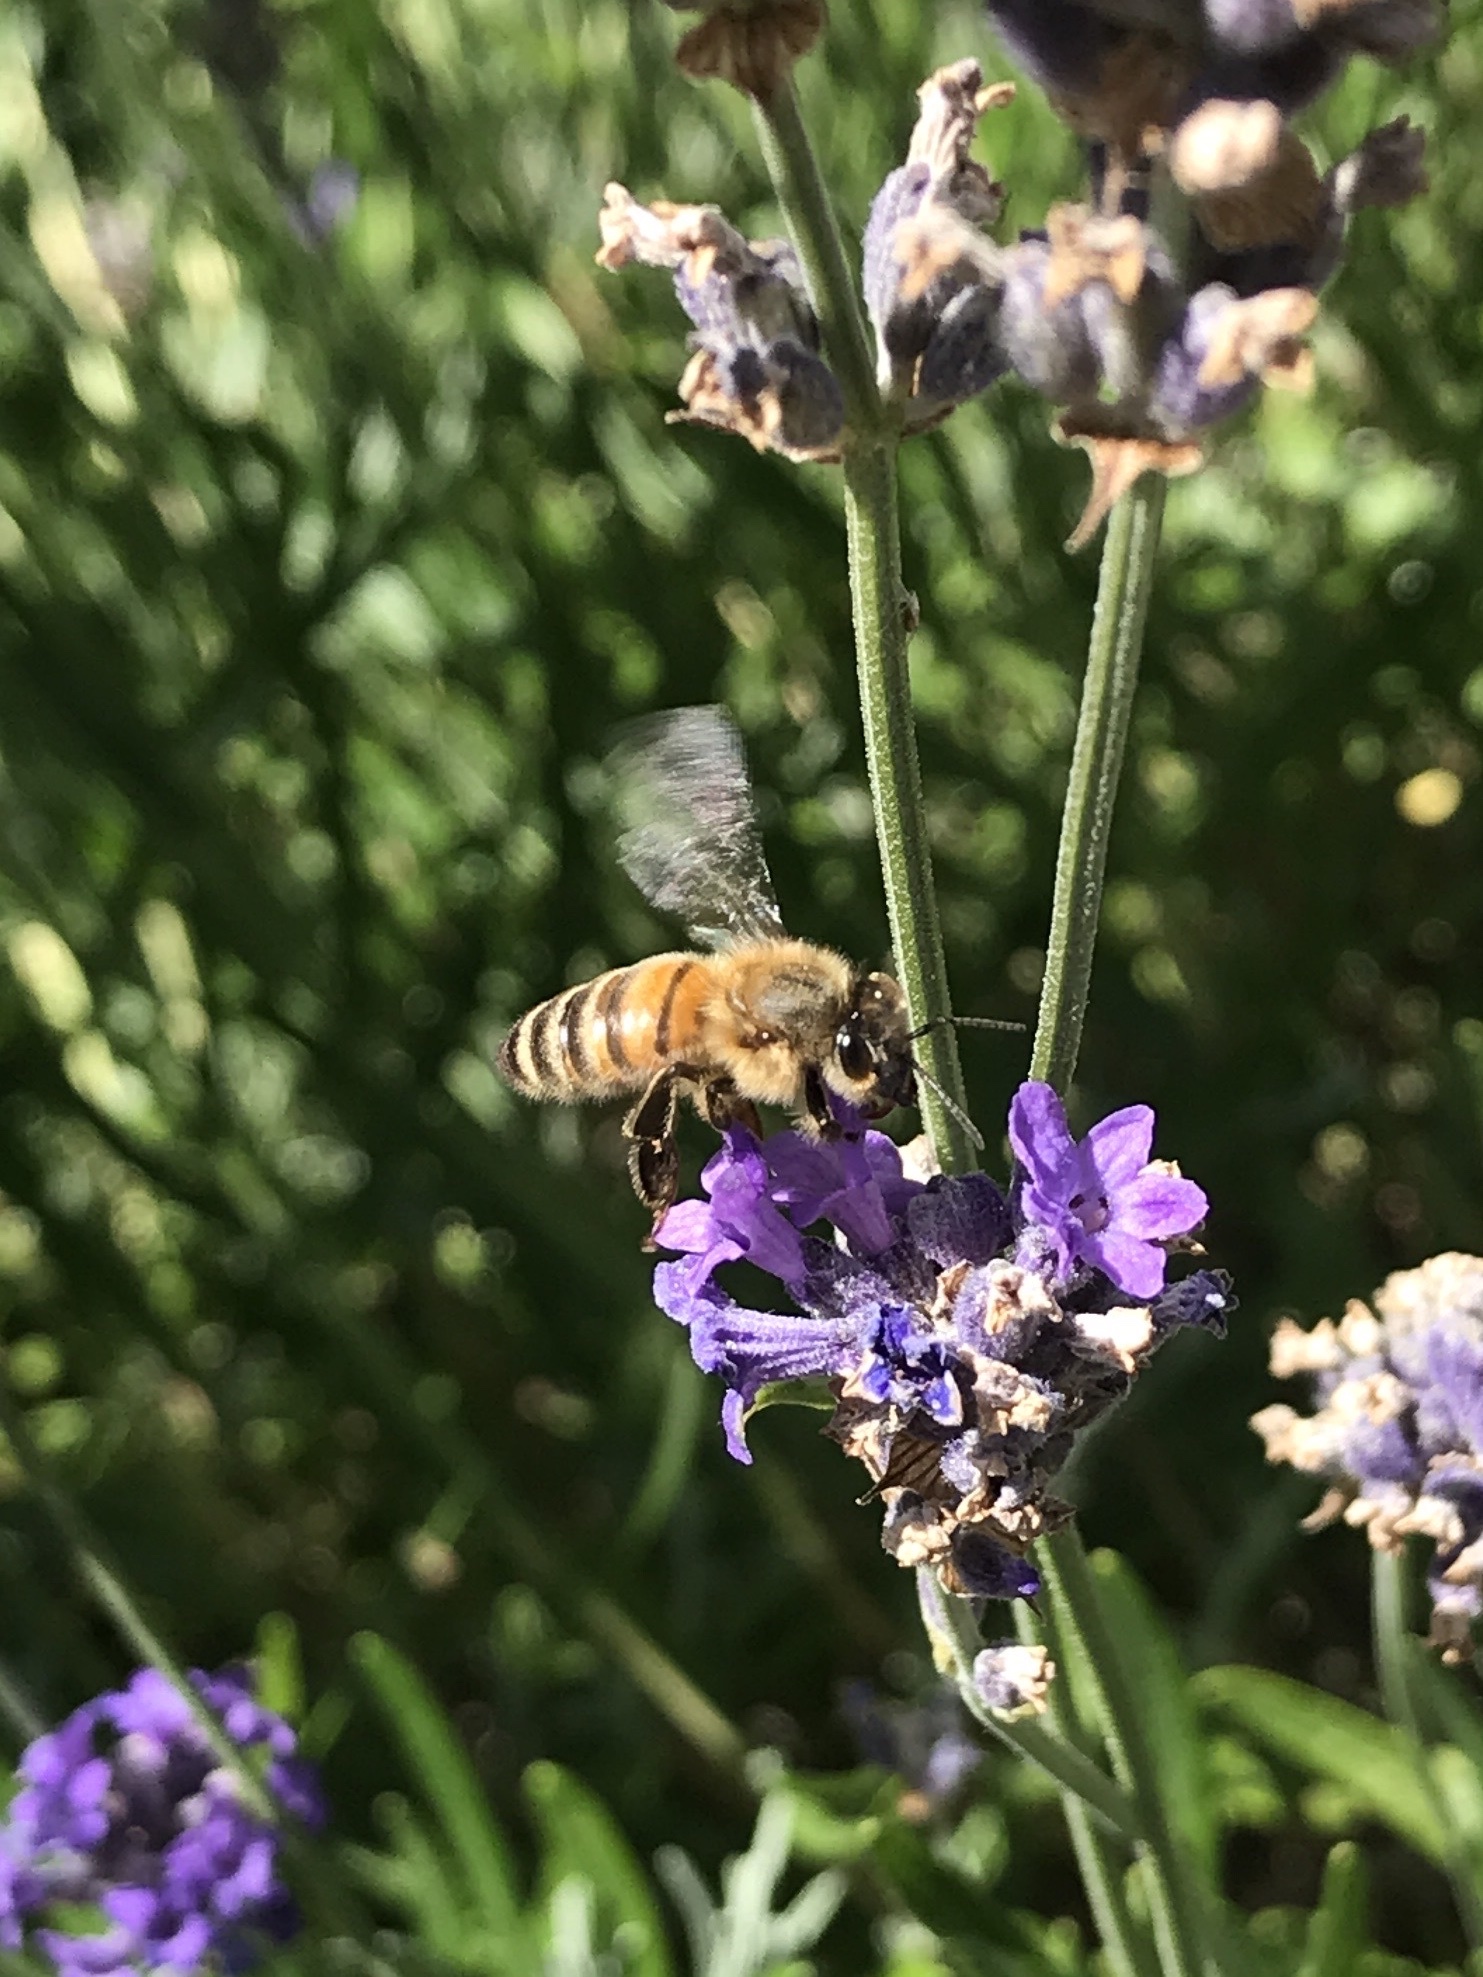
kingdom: Animalia
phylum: Arthropoda
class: Insecta
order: Hymenoptera
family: Apidae
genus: Apis
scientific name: Apis mellifera
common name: Honey bee
